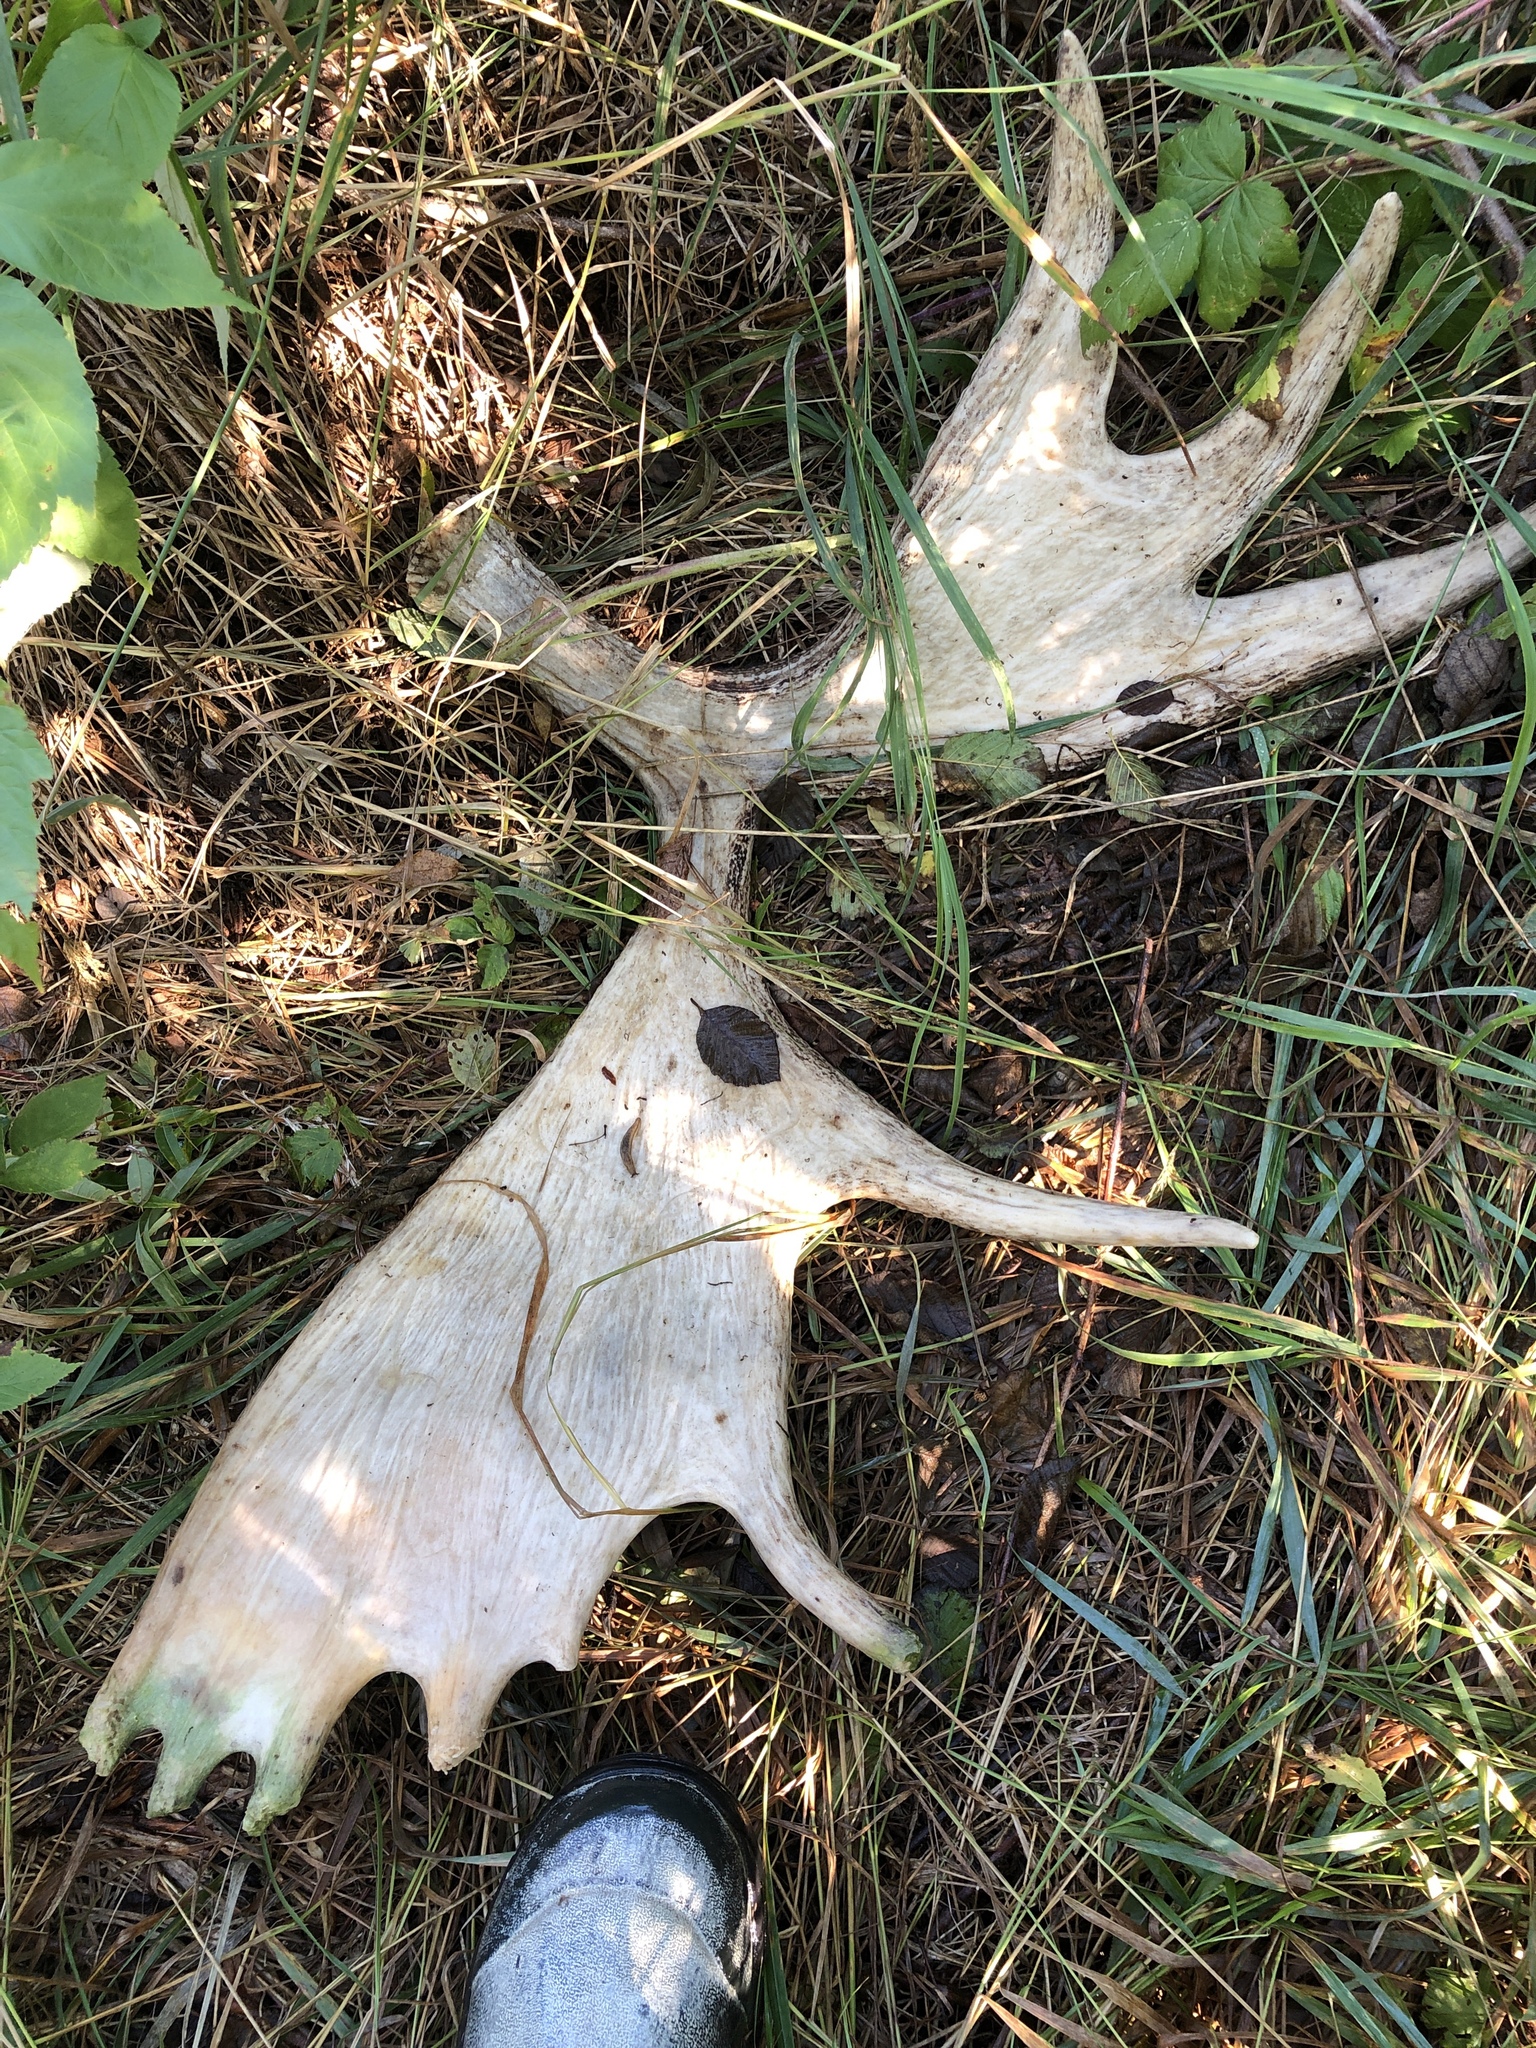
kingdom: Animalia
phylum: Chordata
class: Mammalia
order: Artiodactyla
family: Cervidae
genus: Alces
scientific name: Alces alces
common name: Moose
